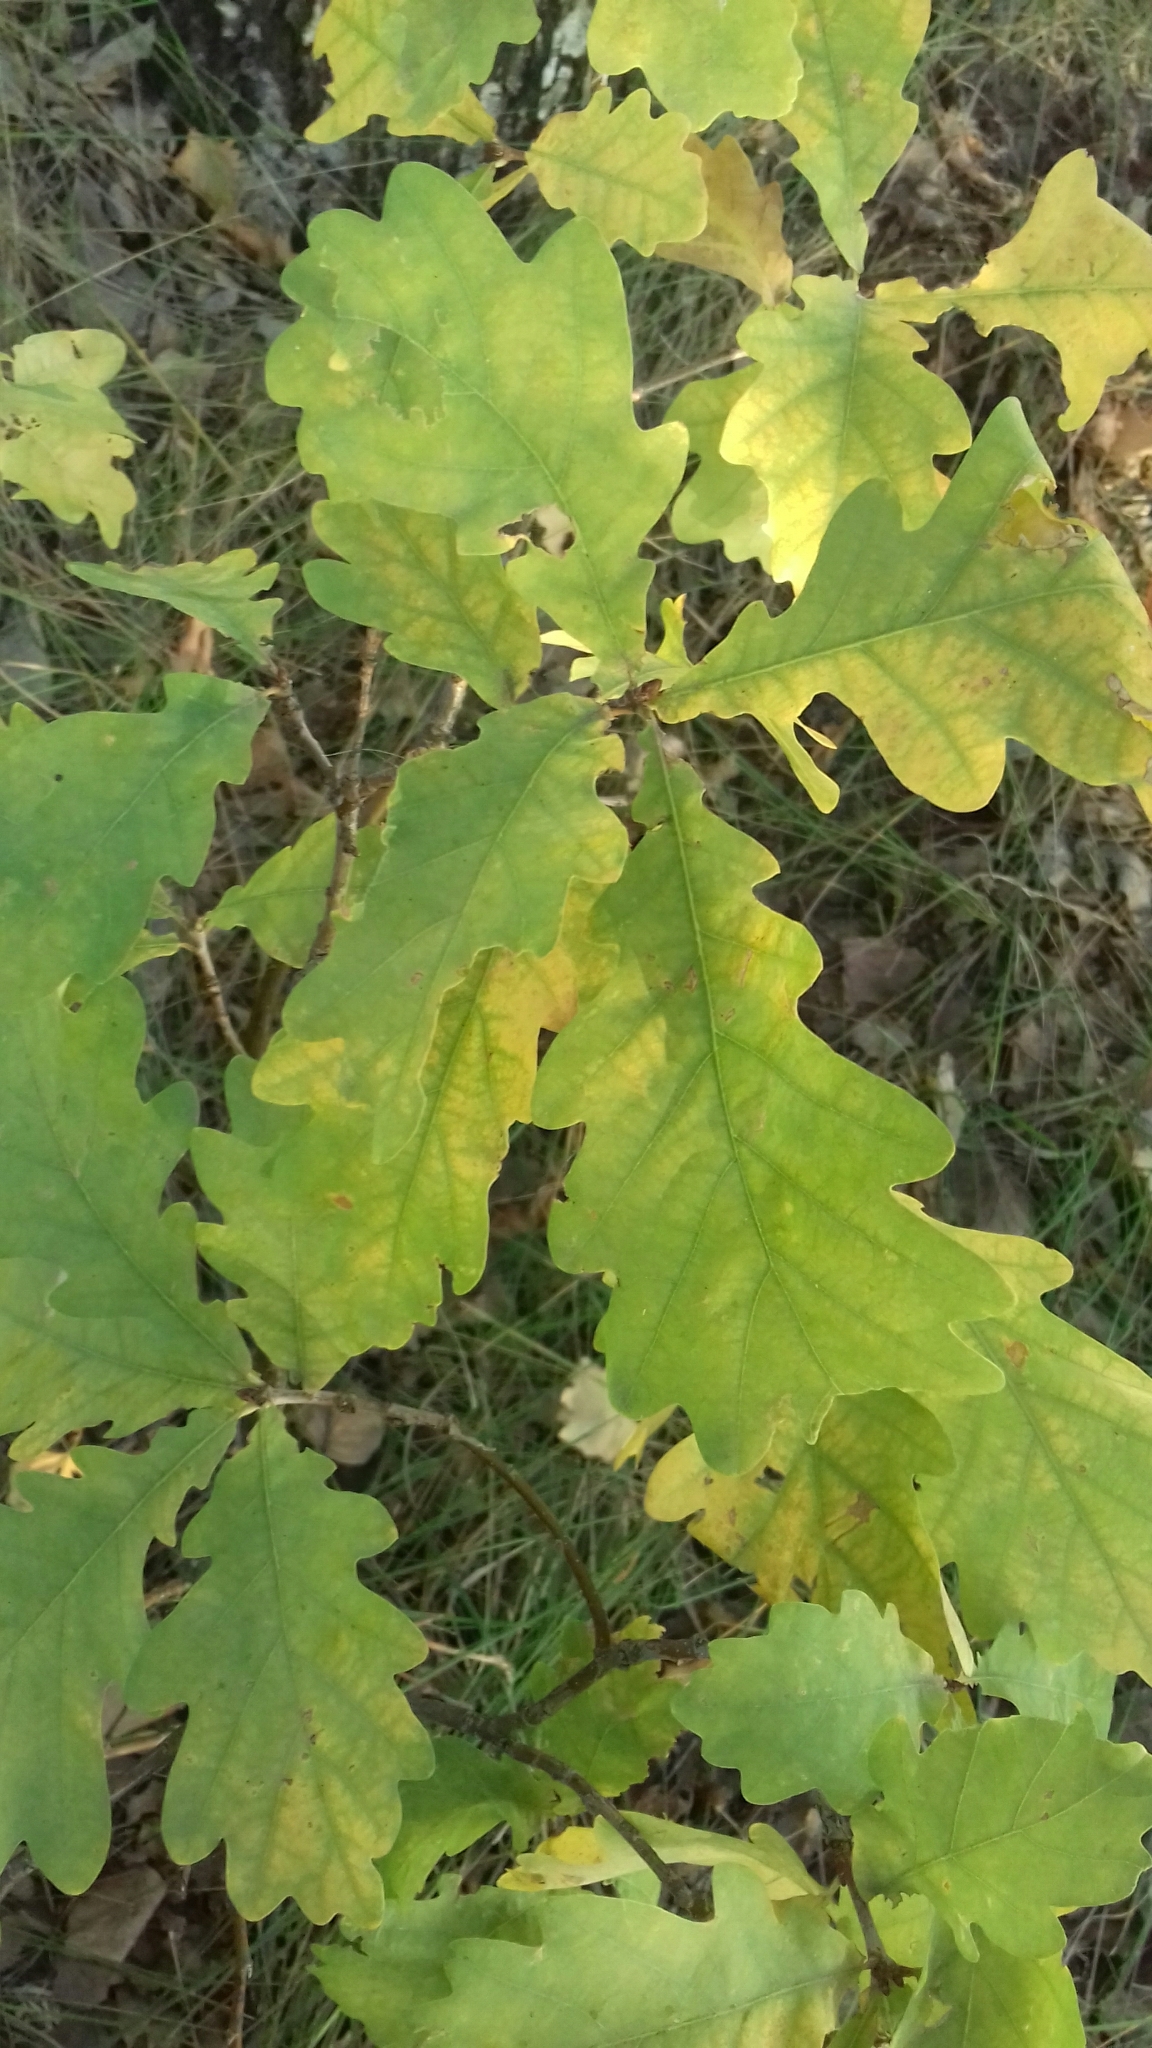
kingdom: Plantae
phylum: Tracheophyta
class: Magnoliopsida
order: Fagales
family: Fagaceae
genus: Quercus
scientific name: Quercus robur
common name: Pedunculate oak
